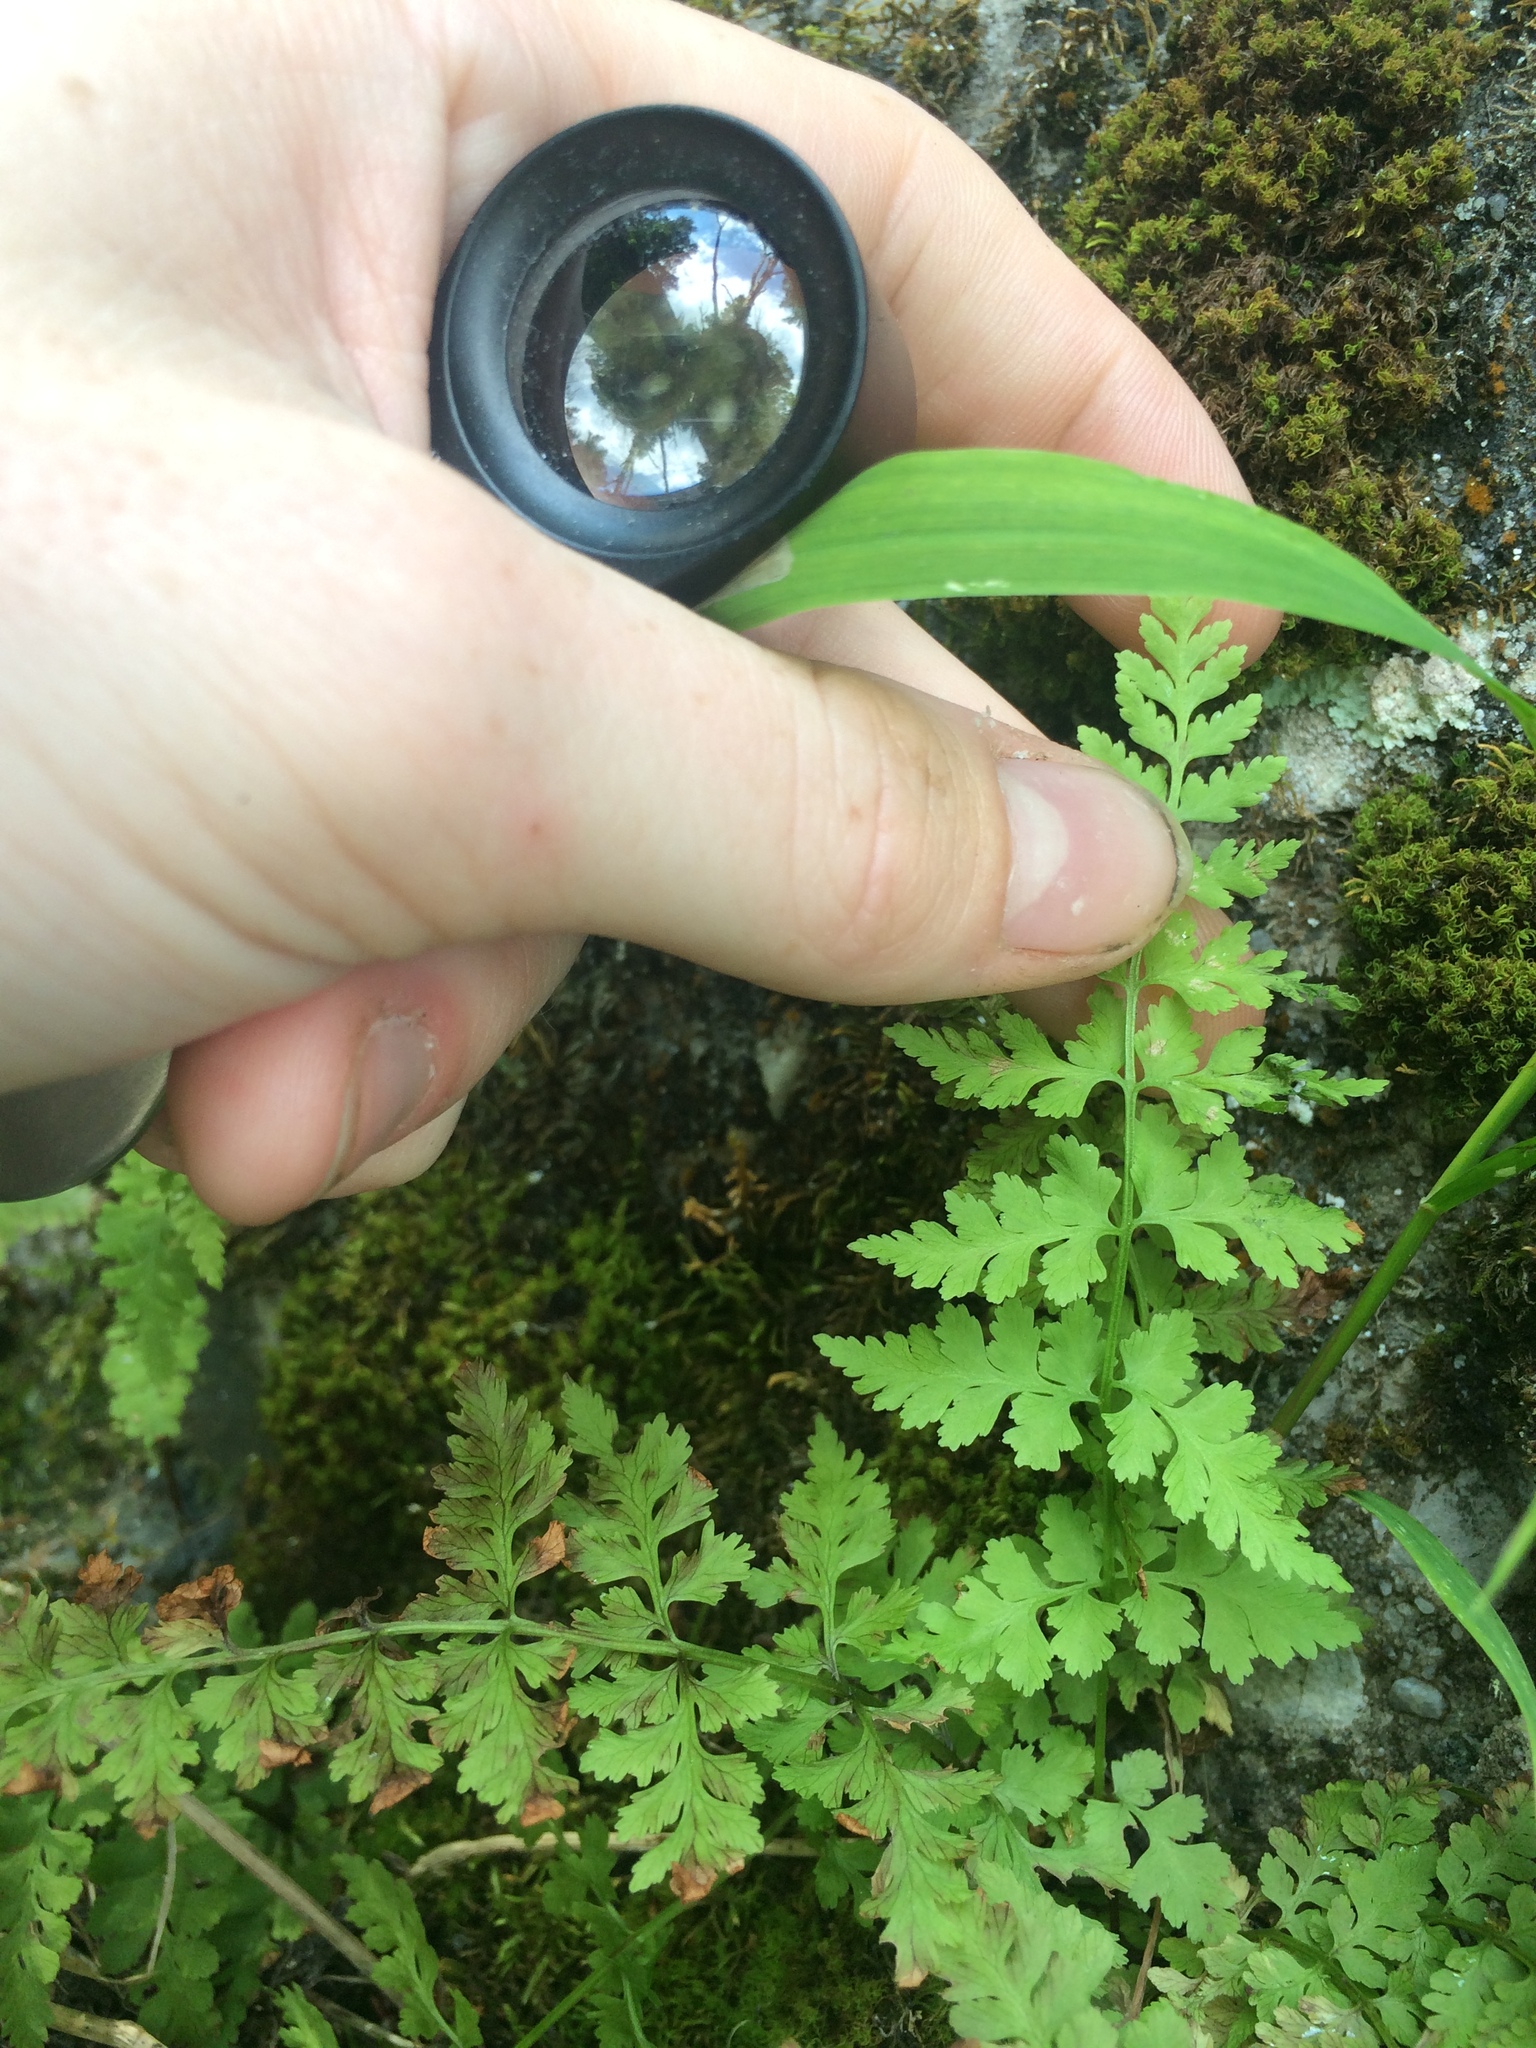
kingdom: Plantae
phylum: Tracheophyta
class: Polypodiopsida
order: Polypodiales
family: Cystopteridaceae
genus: Cystopteris
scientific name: Cystopteris fragilis
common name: Brittle bladder fern
